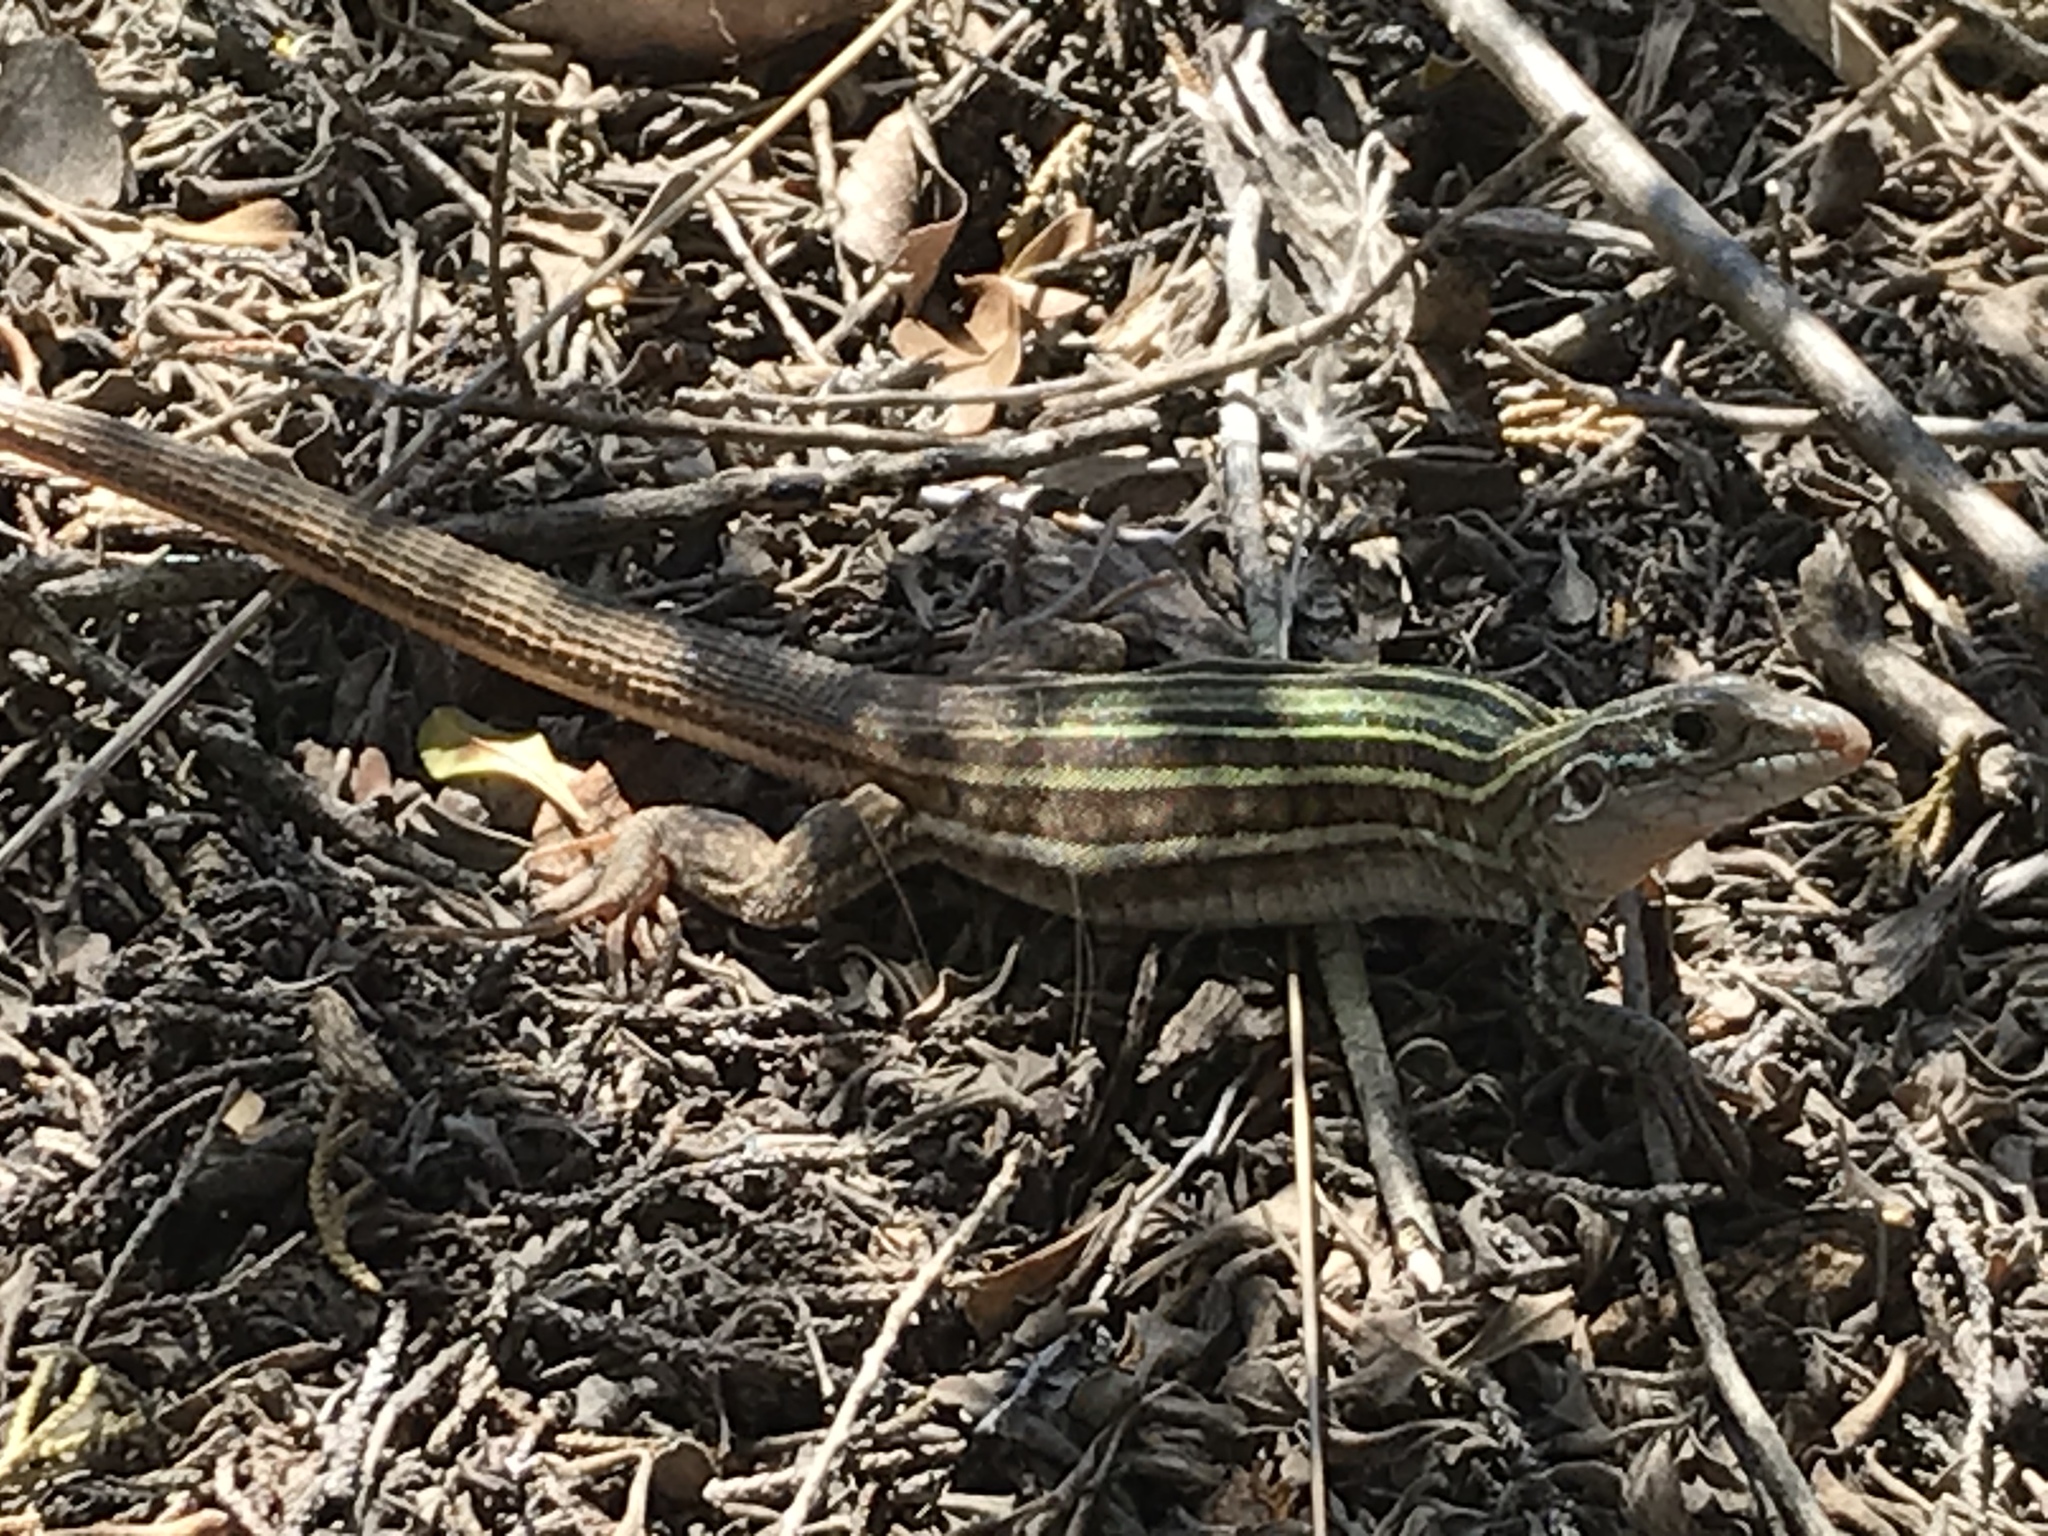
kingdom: Animalia
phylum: Chordata
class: Squamata
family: Teiidae
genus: Aspidoscelis
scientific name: Aspidoscelis gularis
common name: Eastern spotted whiptail
